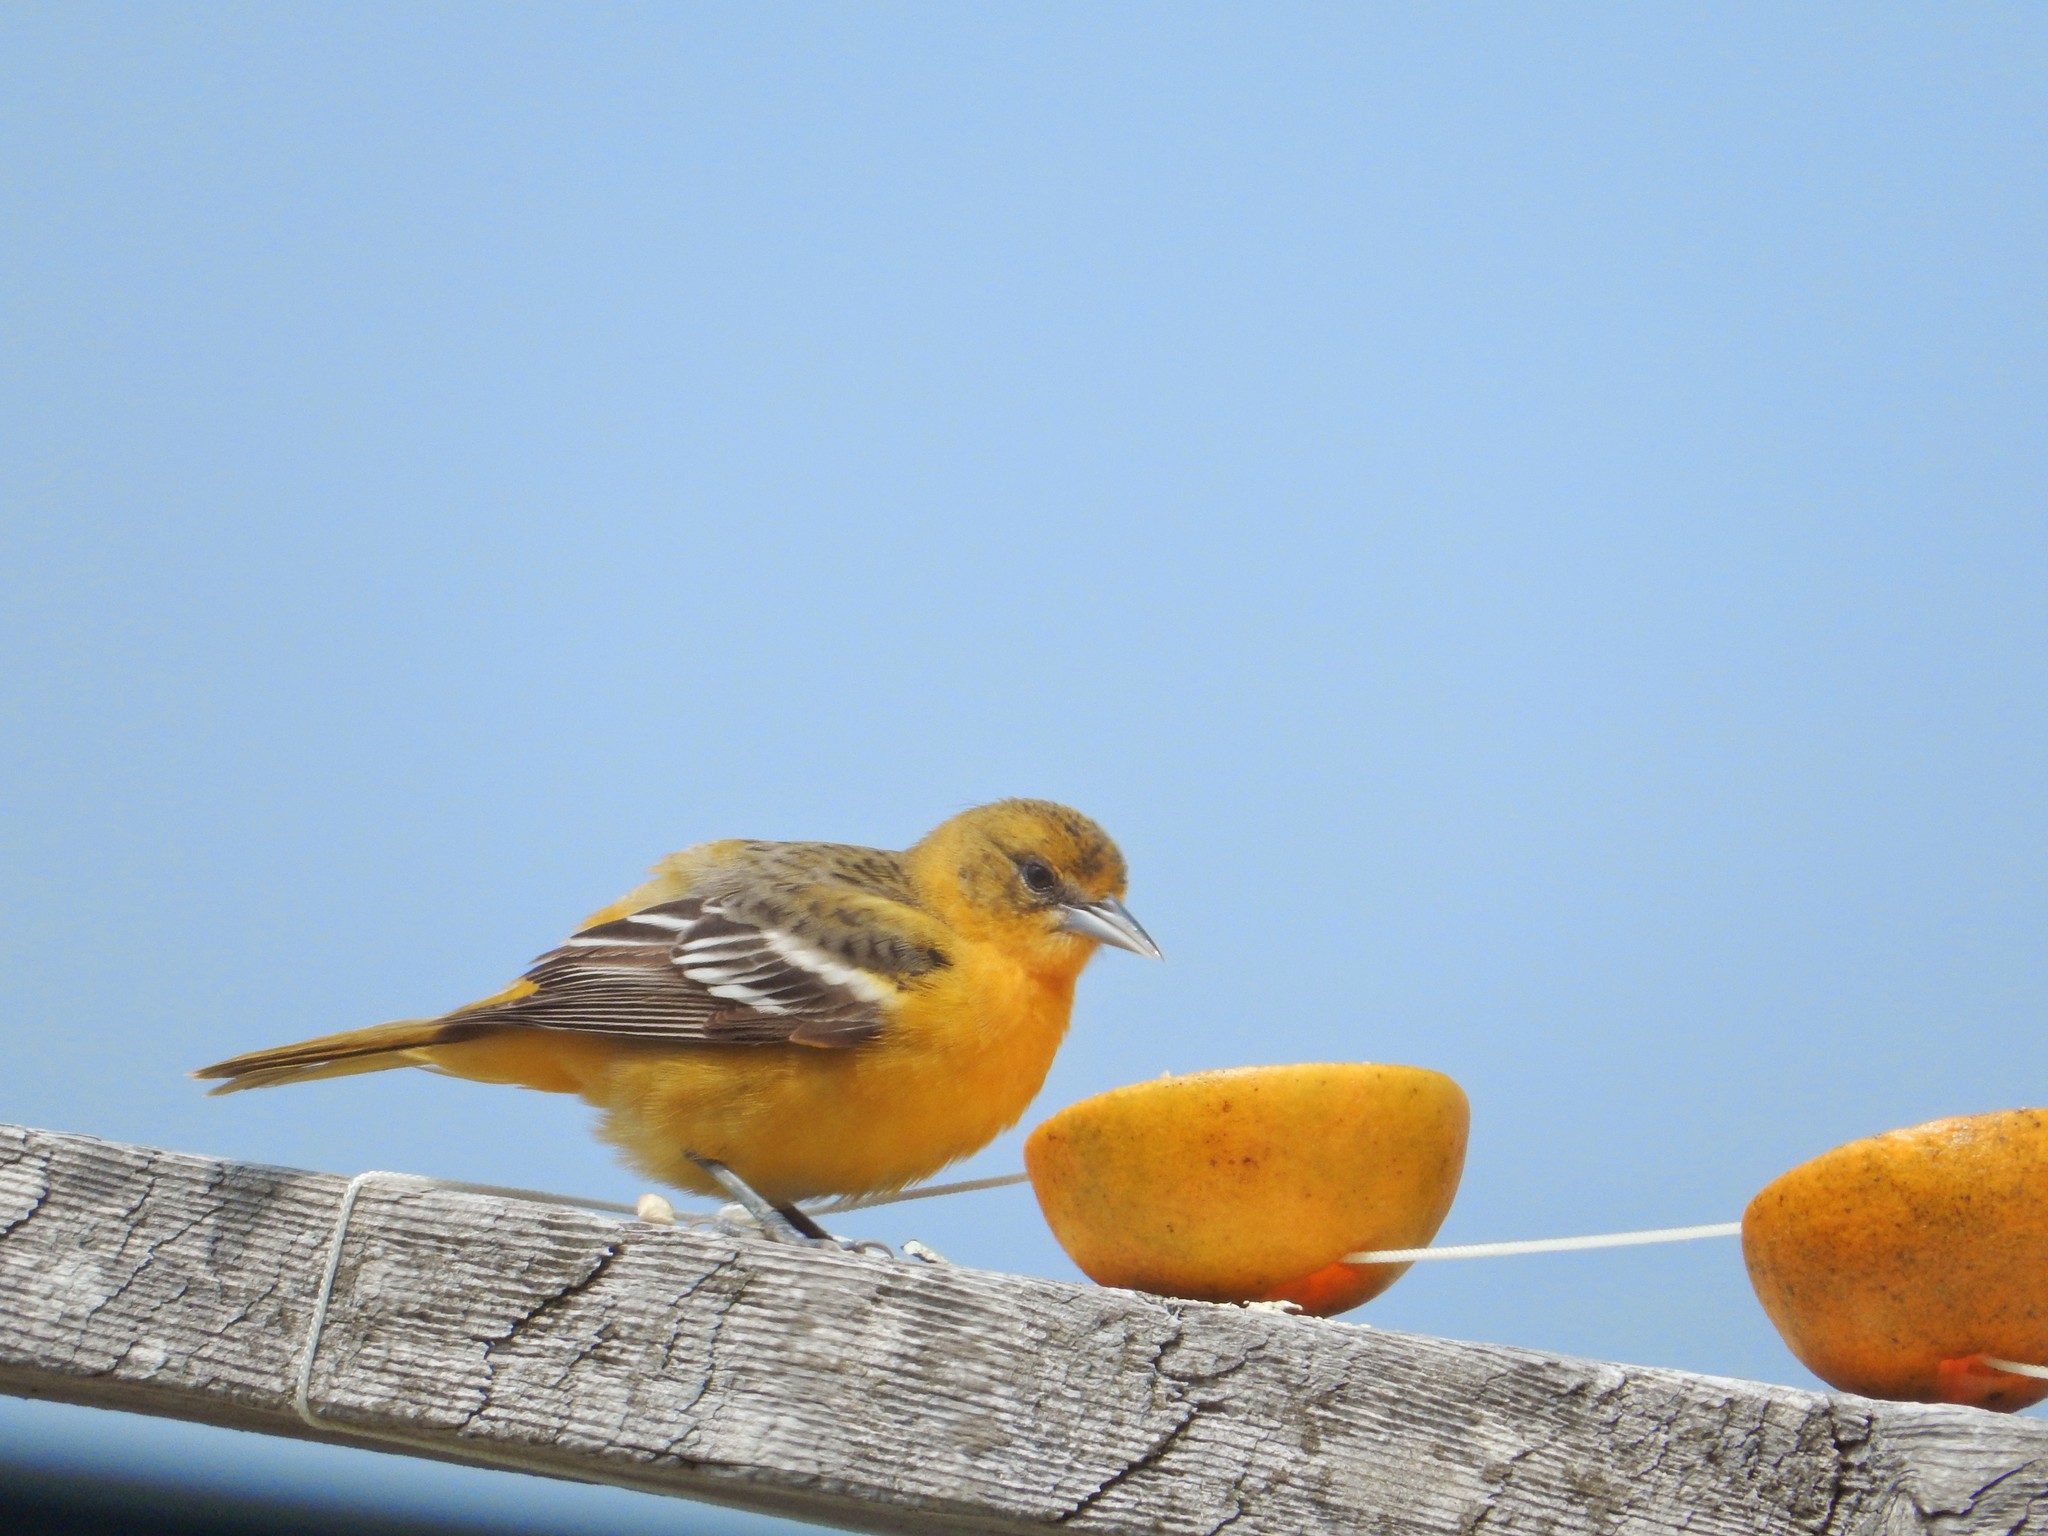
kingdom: Animalia
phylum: Chordata
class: Aves
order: Passeriformes
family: Icteridae
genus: Icterus
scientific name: Icterus galbula
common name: Baltimore oriole
